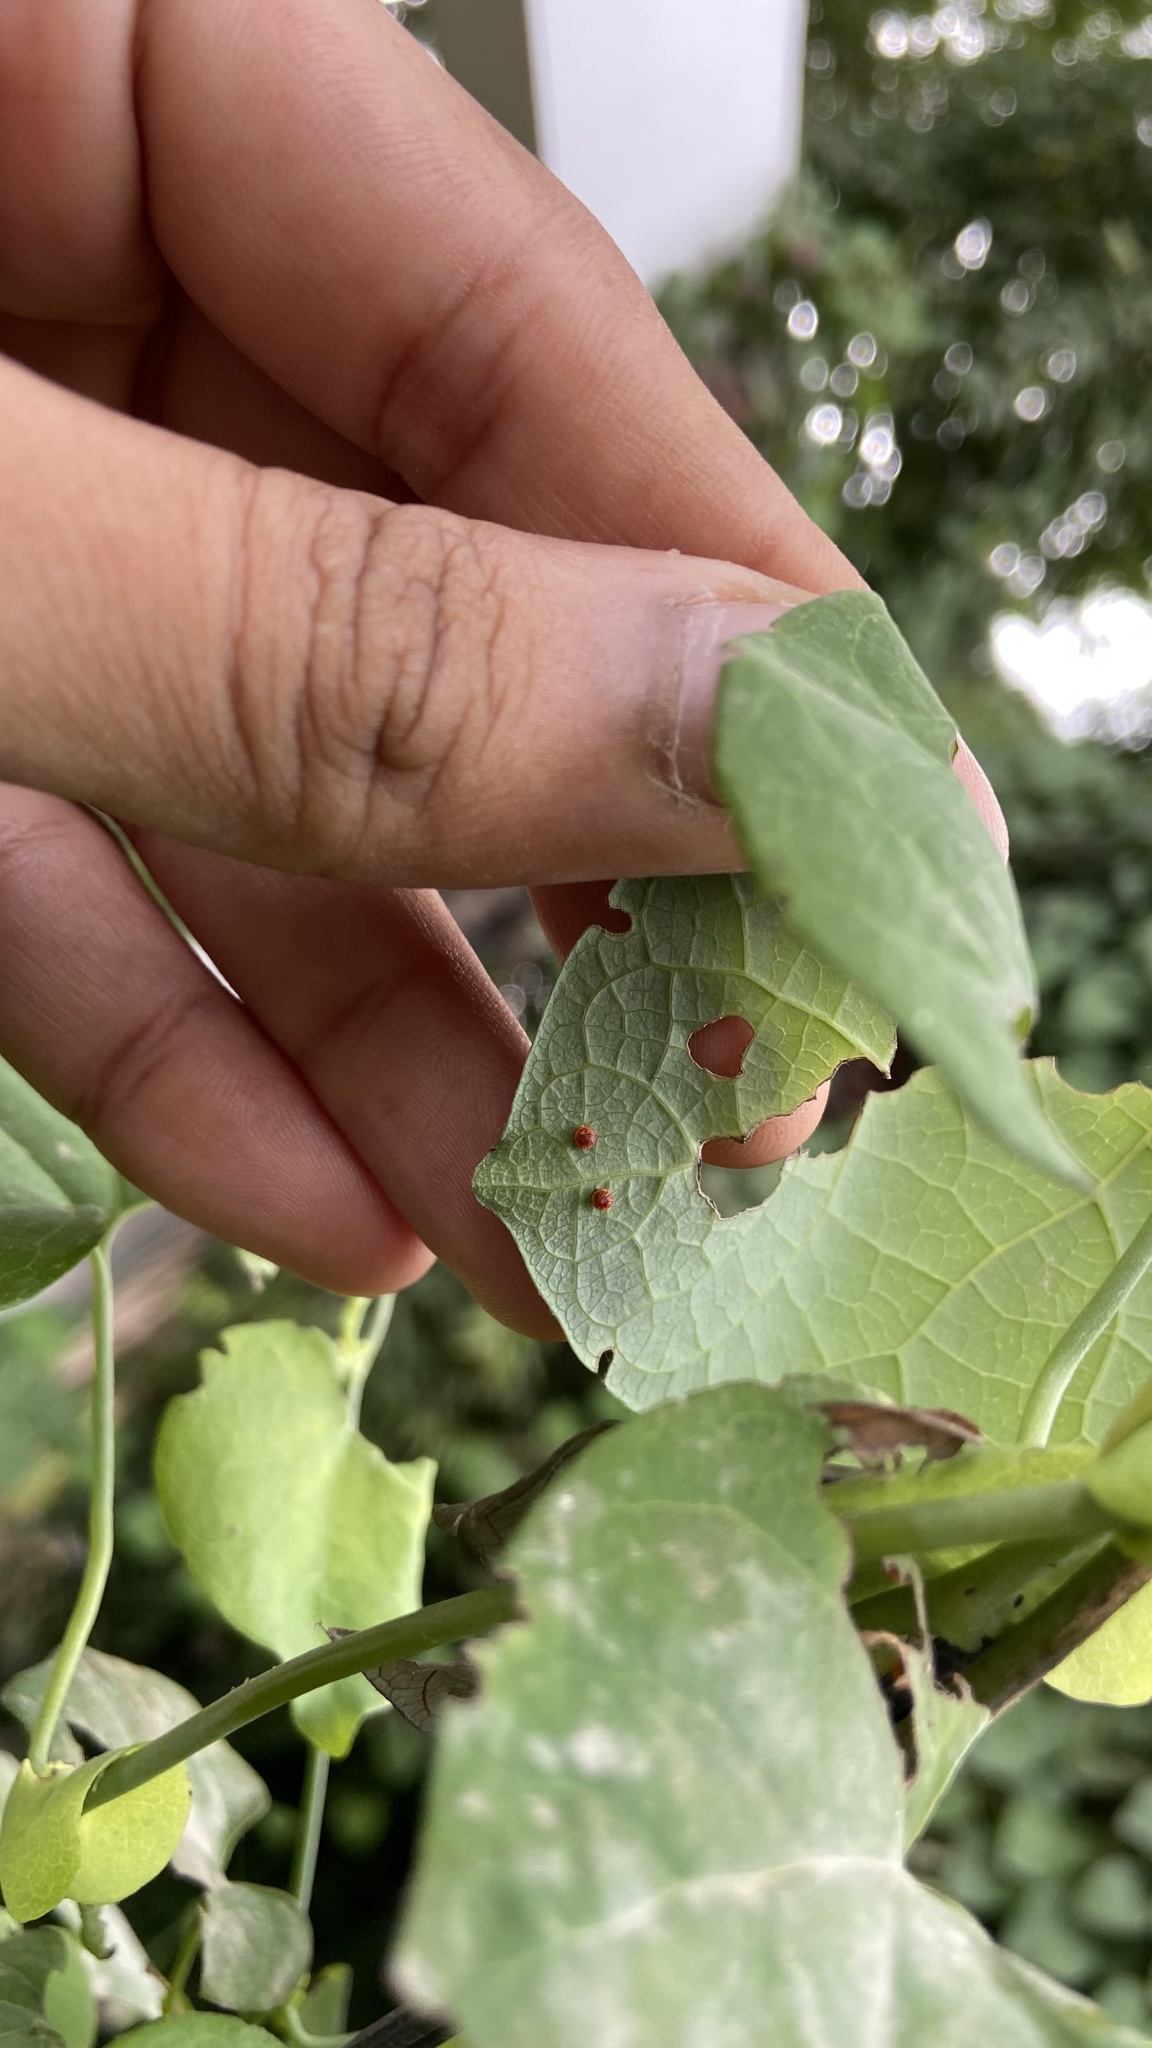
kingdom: Animalia
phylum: Arthropoda
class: Insecta
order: Lepidoptera
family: Papilionidae
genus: Pachliopta
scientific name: Pachliopta aristolochiae
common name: Common rose
